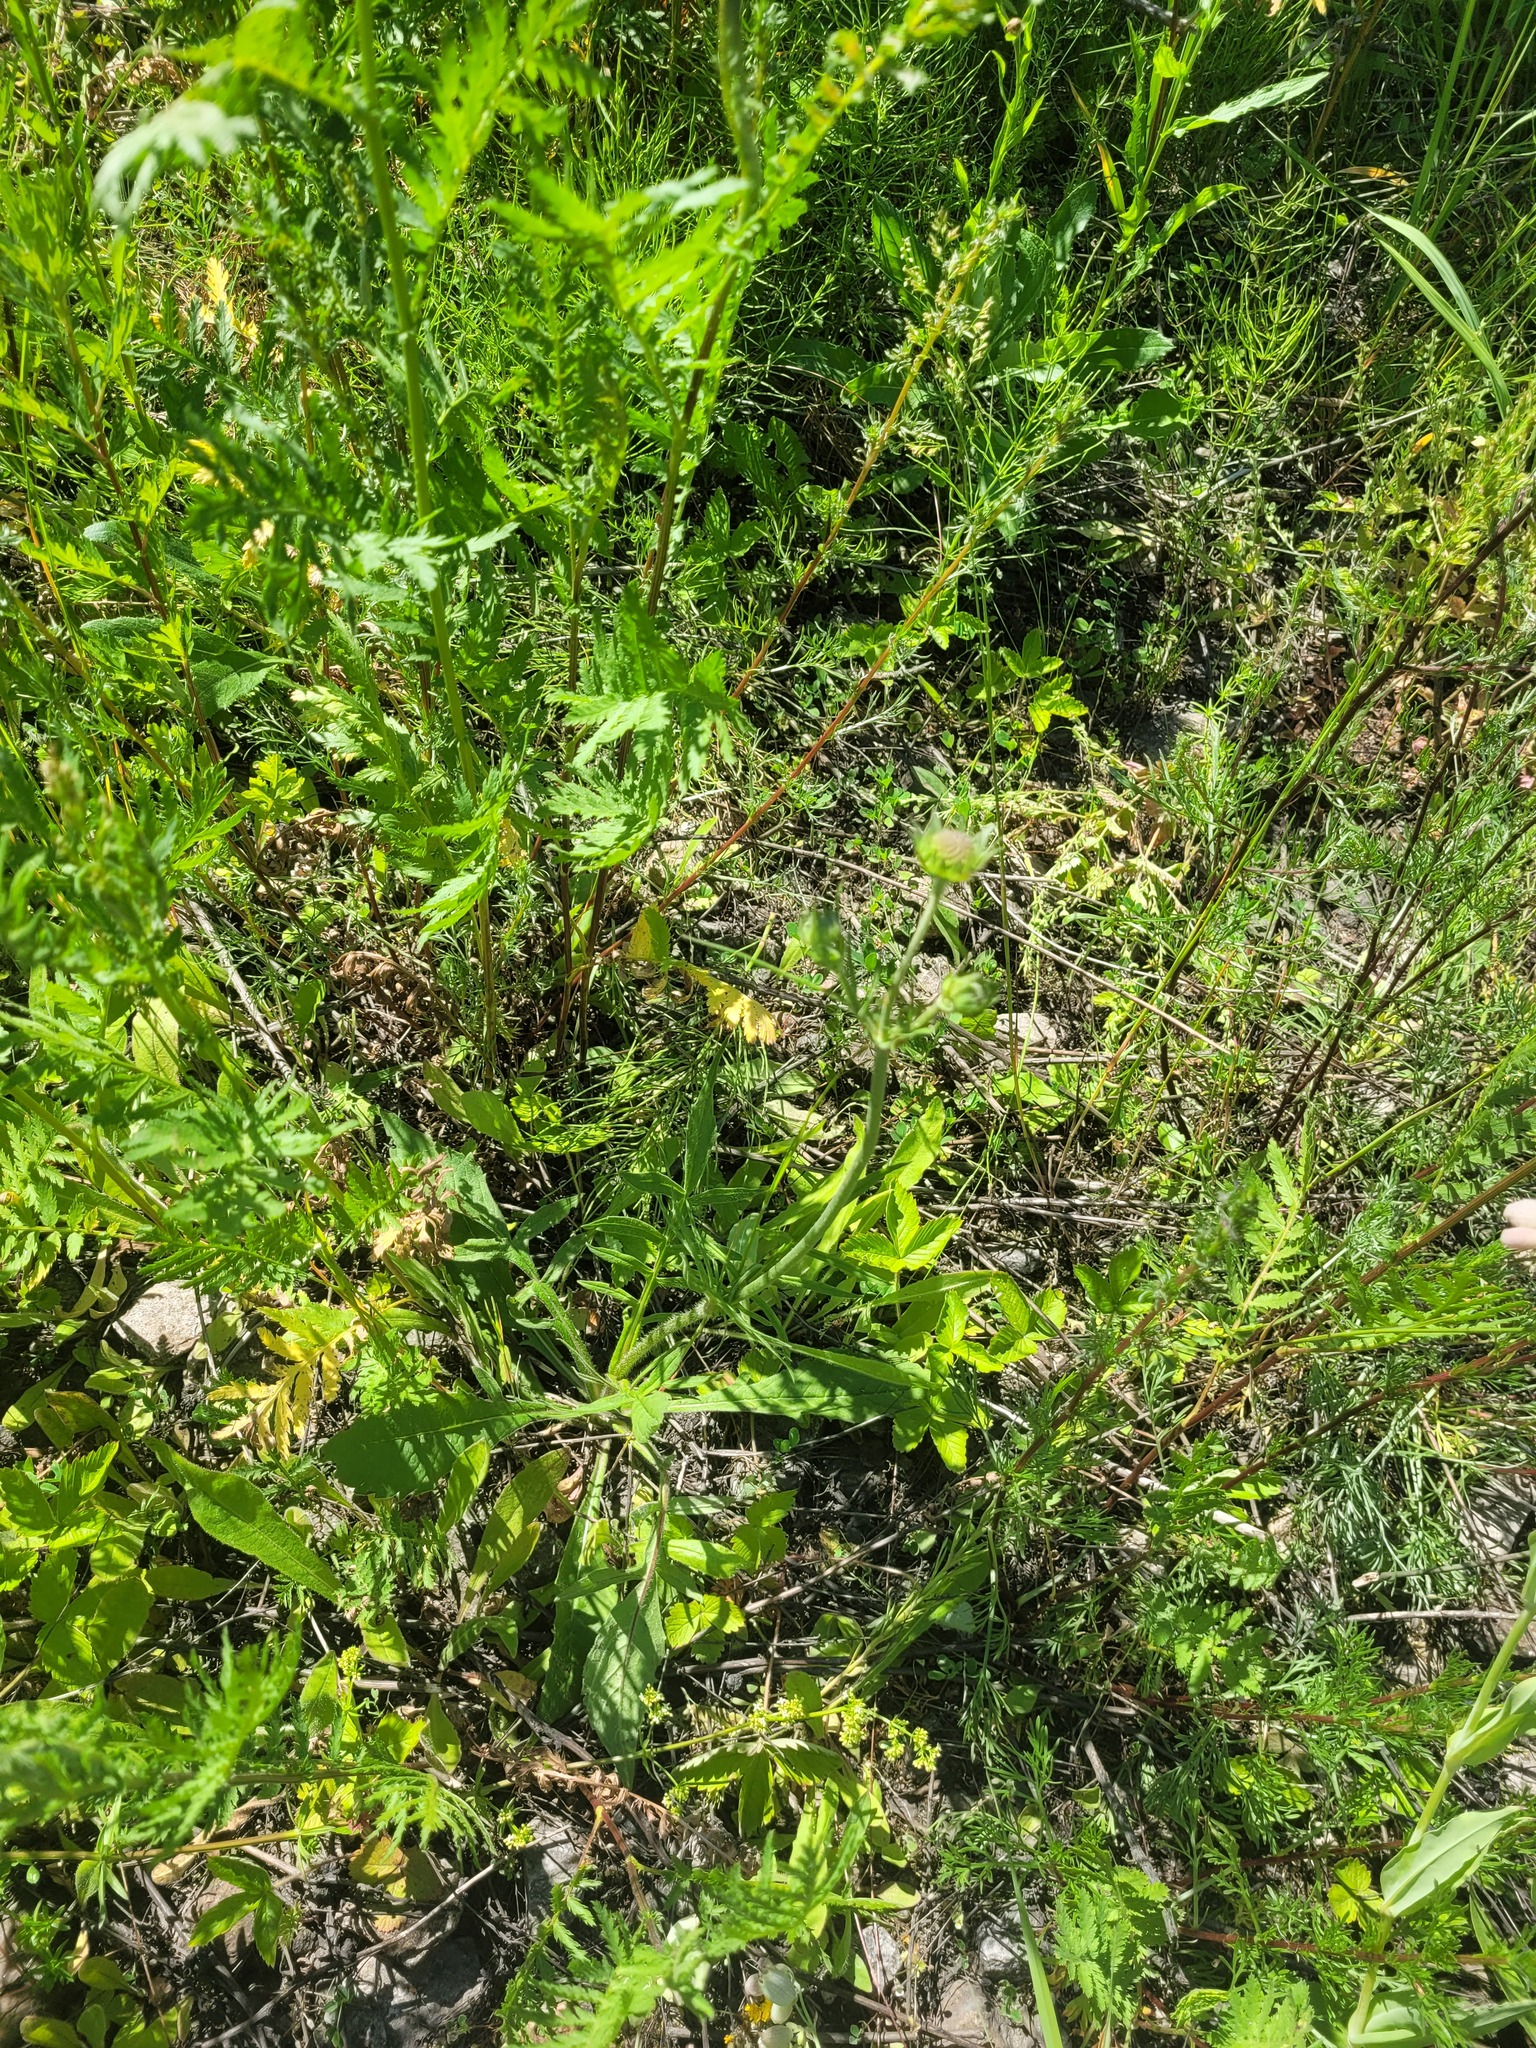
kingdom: Plantae
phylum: Tracheophyta
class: Magnoliopsida
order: Dipsacales
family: Caprifoliaceae
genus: Knautia
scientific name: Knautia arvensis
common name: Field scabiosa
